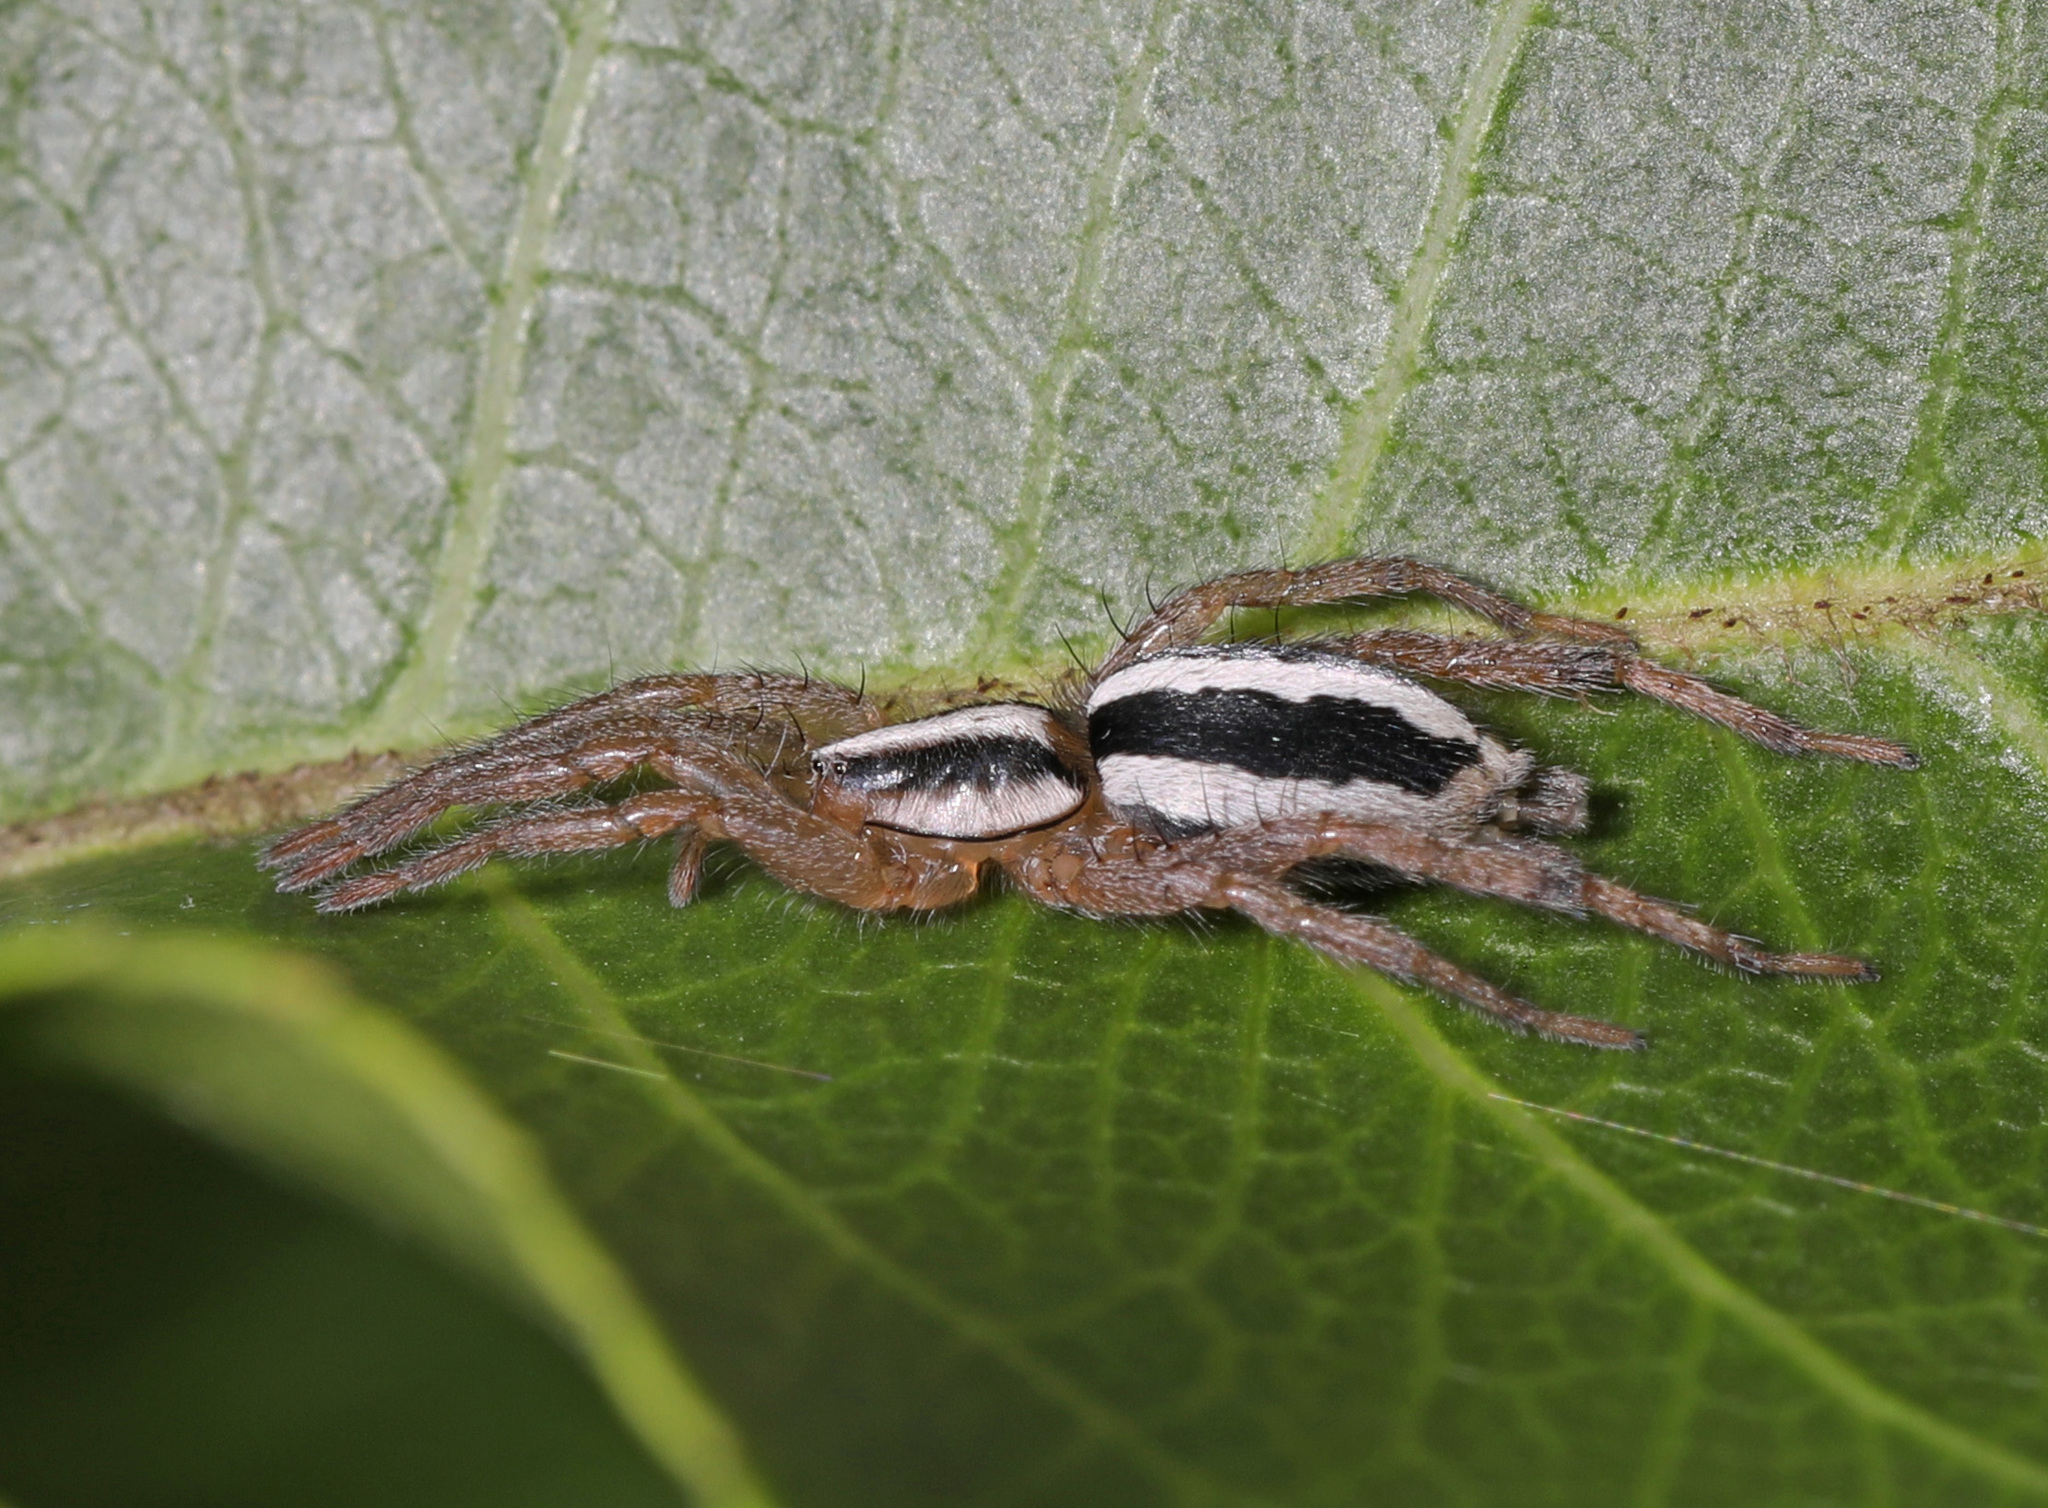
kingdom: Animalia
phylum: Arthropoda
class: Arachnida
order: Araneae
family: Gnaphosidae
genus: Cesonia
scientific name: Cesonia bilineata
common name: Two-lined stealthy ground spider
